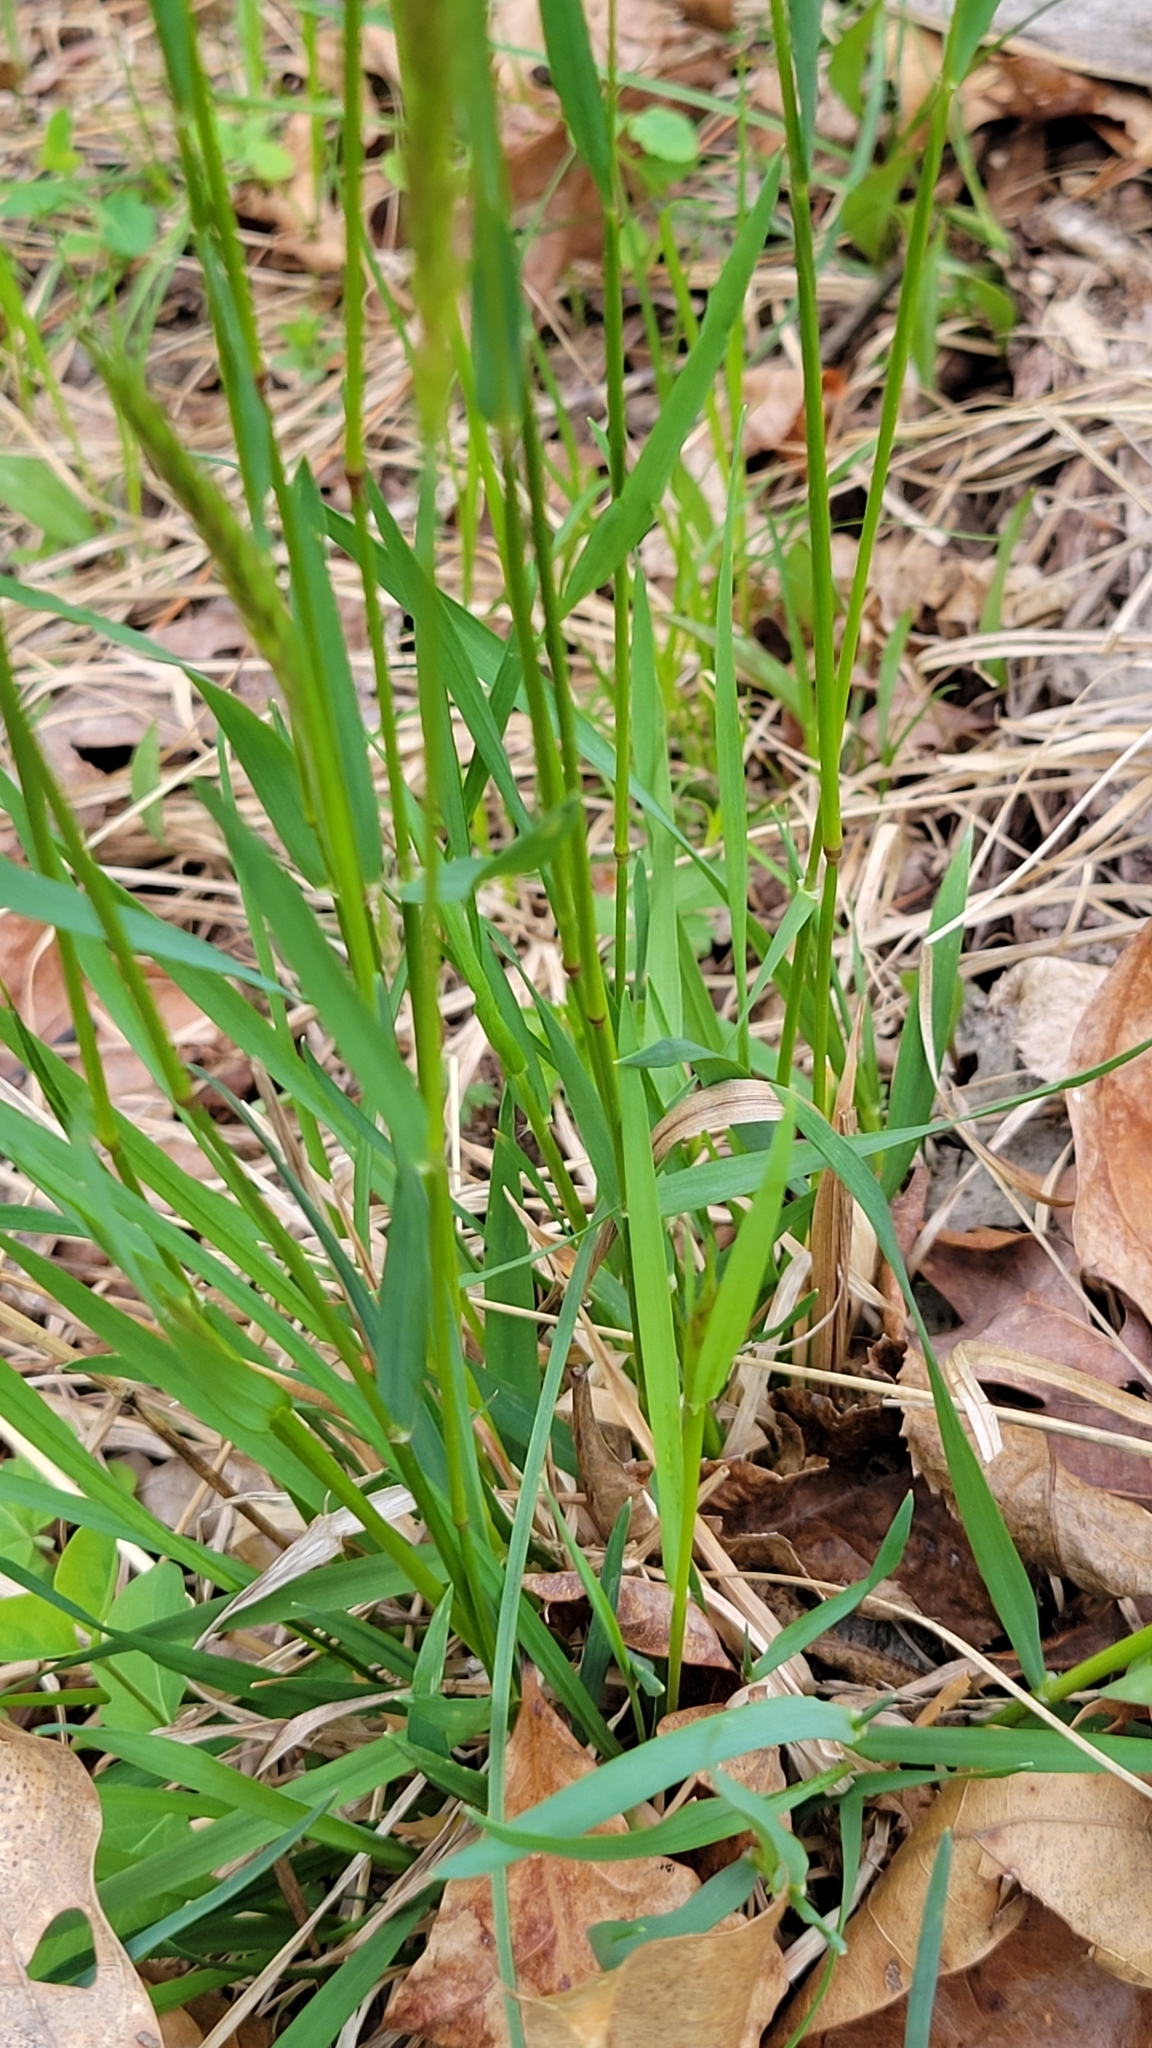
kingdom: Plantae
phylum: Tracheophyta
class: Liliopsida
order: Poales
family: Poaceae
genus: Anthoxanthum
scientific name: Anthoxanthum odoratum
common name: Sweet vernalgrass
